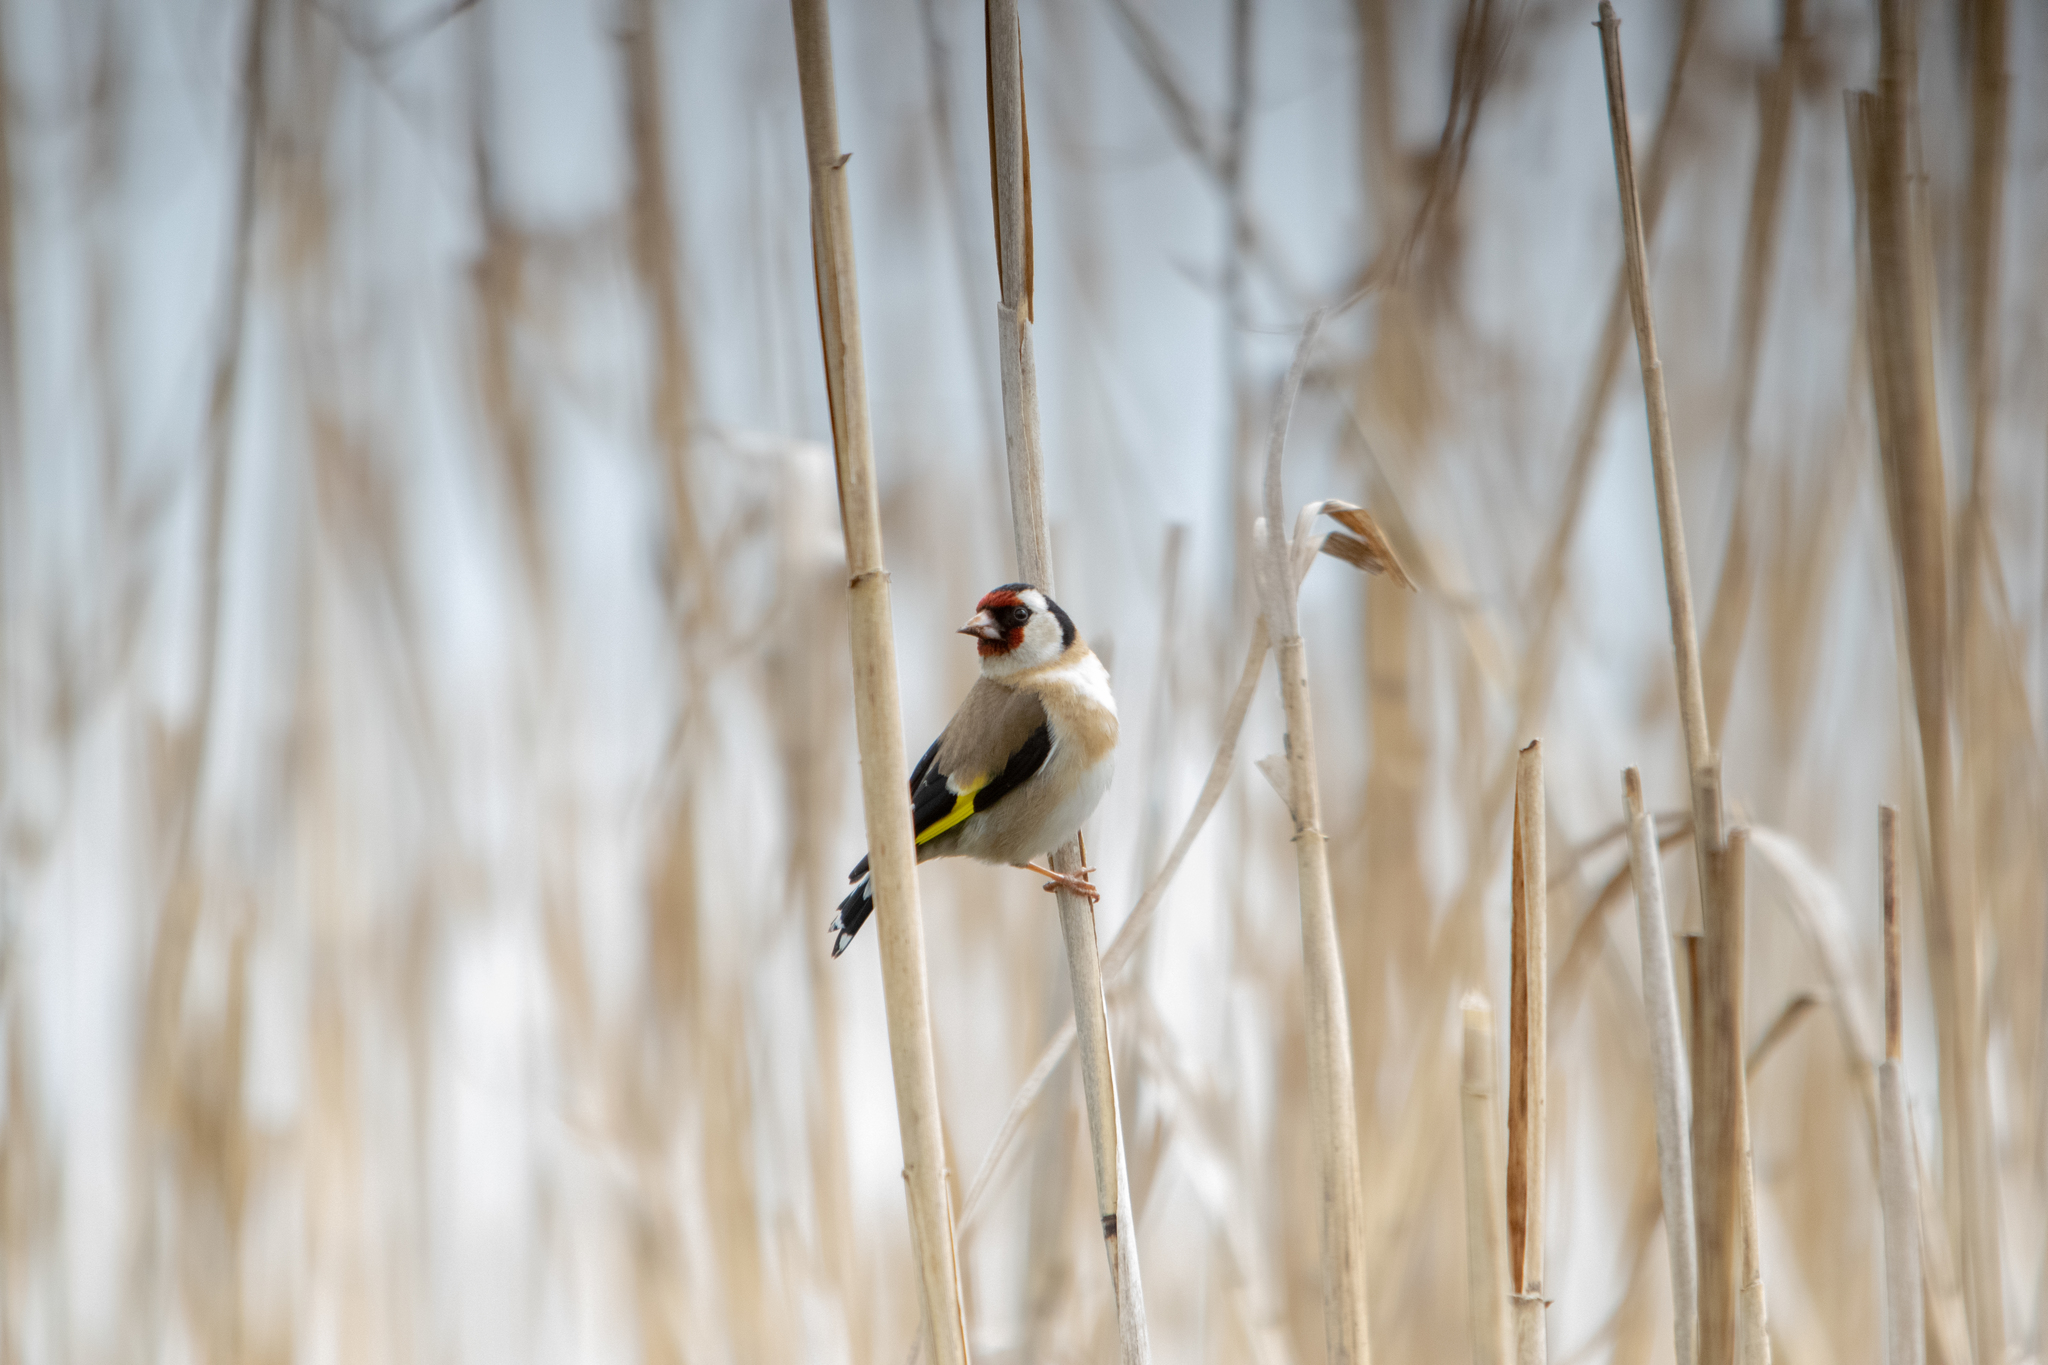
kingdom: Animalia
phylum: Chordata
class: Aves
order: Passeriformes
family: Fringillidae
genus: Carduelis
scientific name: Carduelis carduelis
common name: European goldfinch
